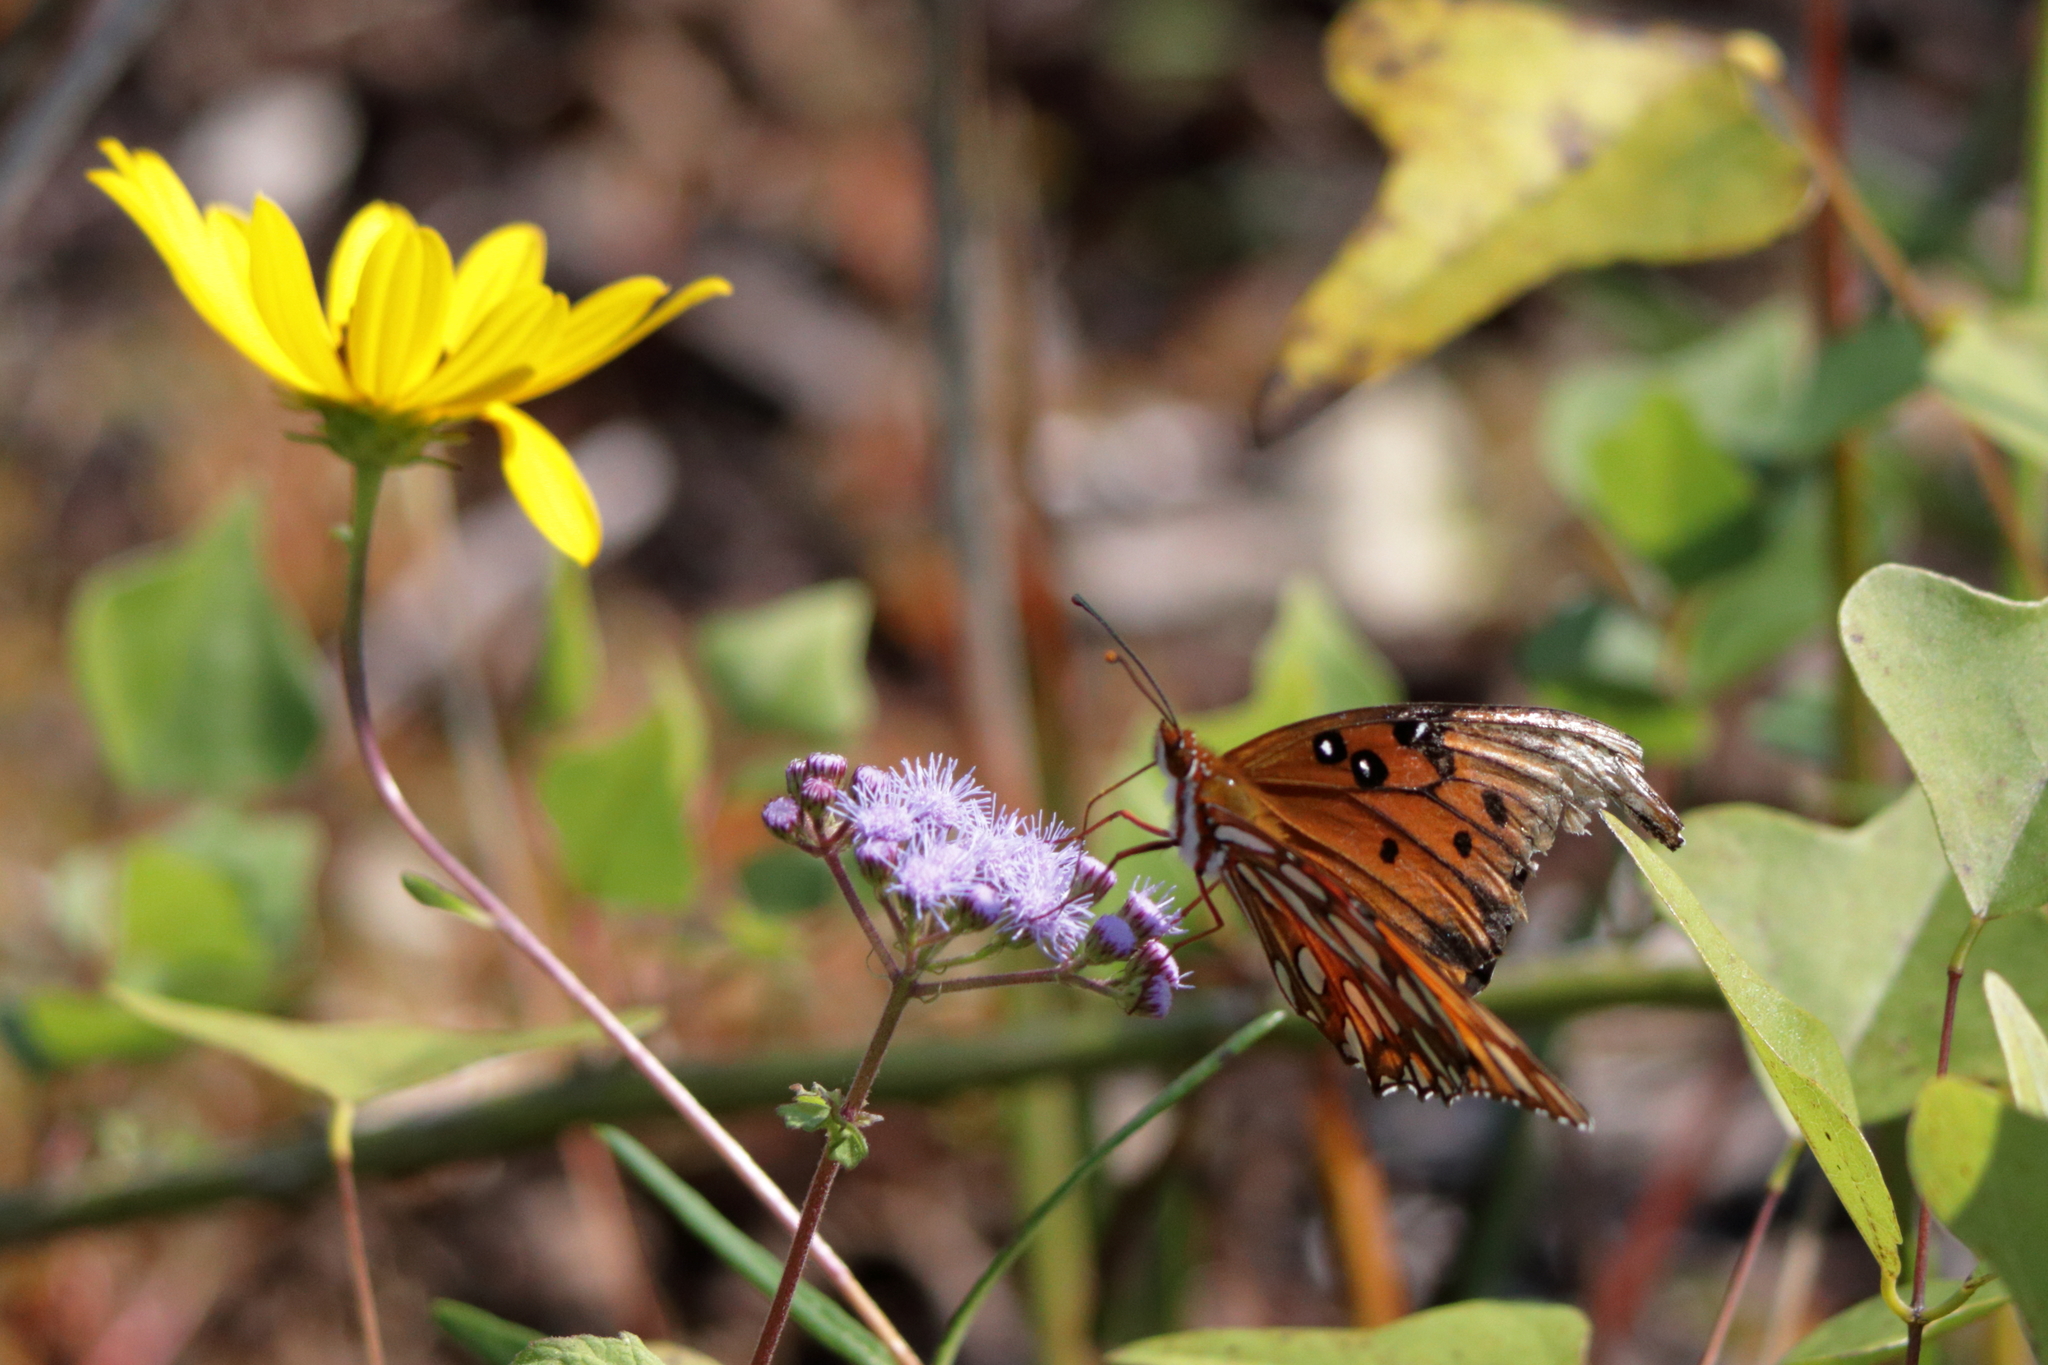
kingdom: Animalia
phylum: Arthropoda
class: Insecta
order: Lepidoptera
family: Nymphalidae
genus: Dione
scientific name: Dione vanillae
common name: Gulf fritillary
